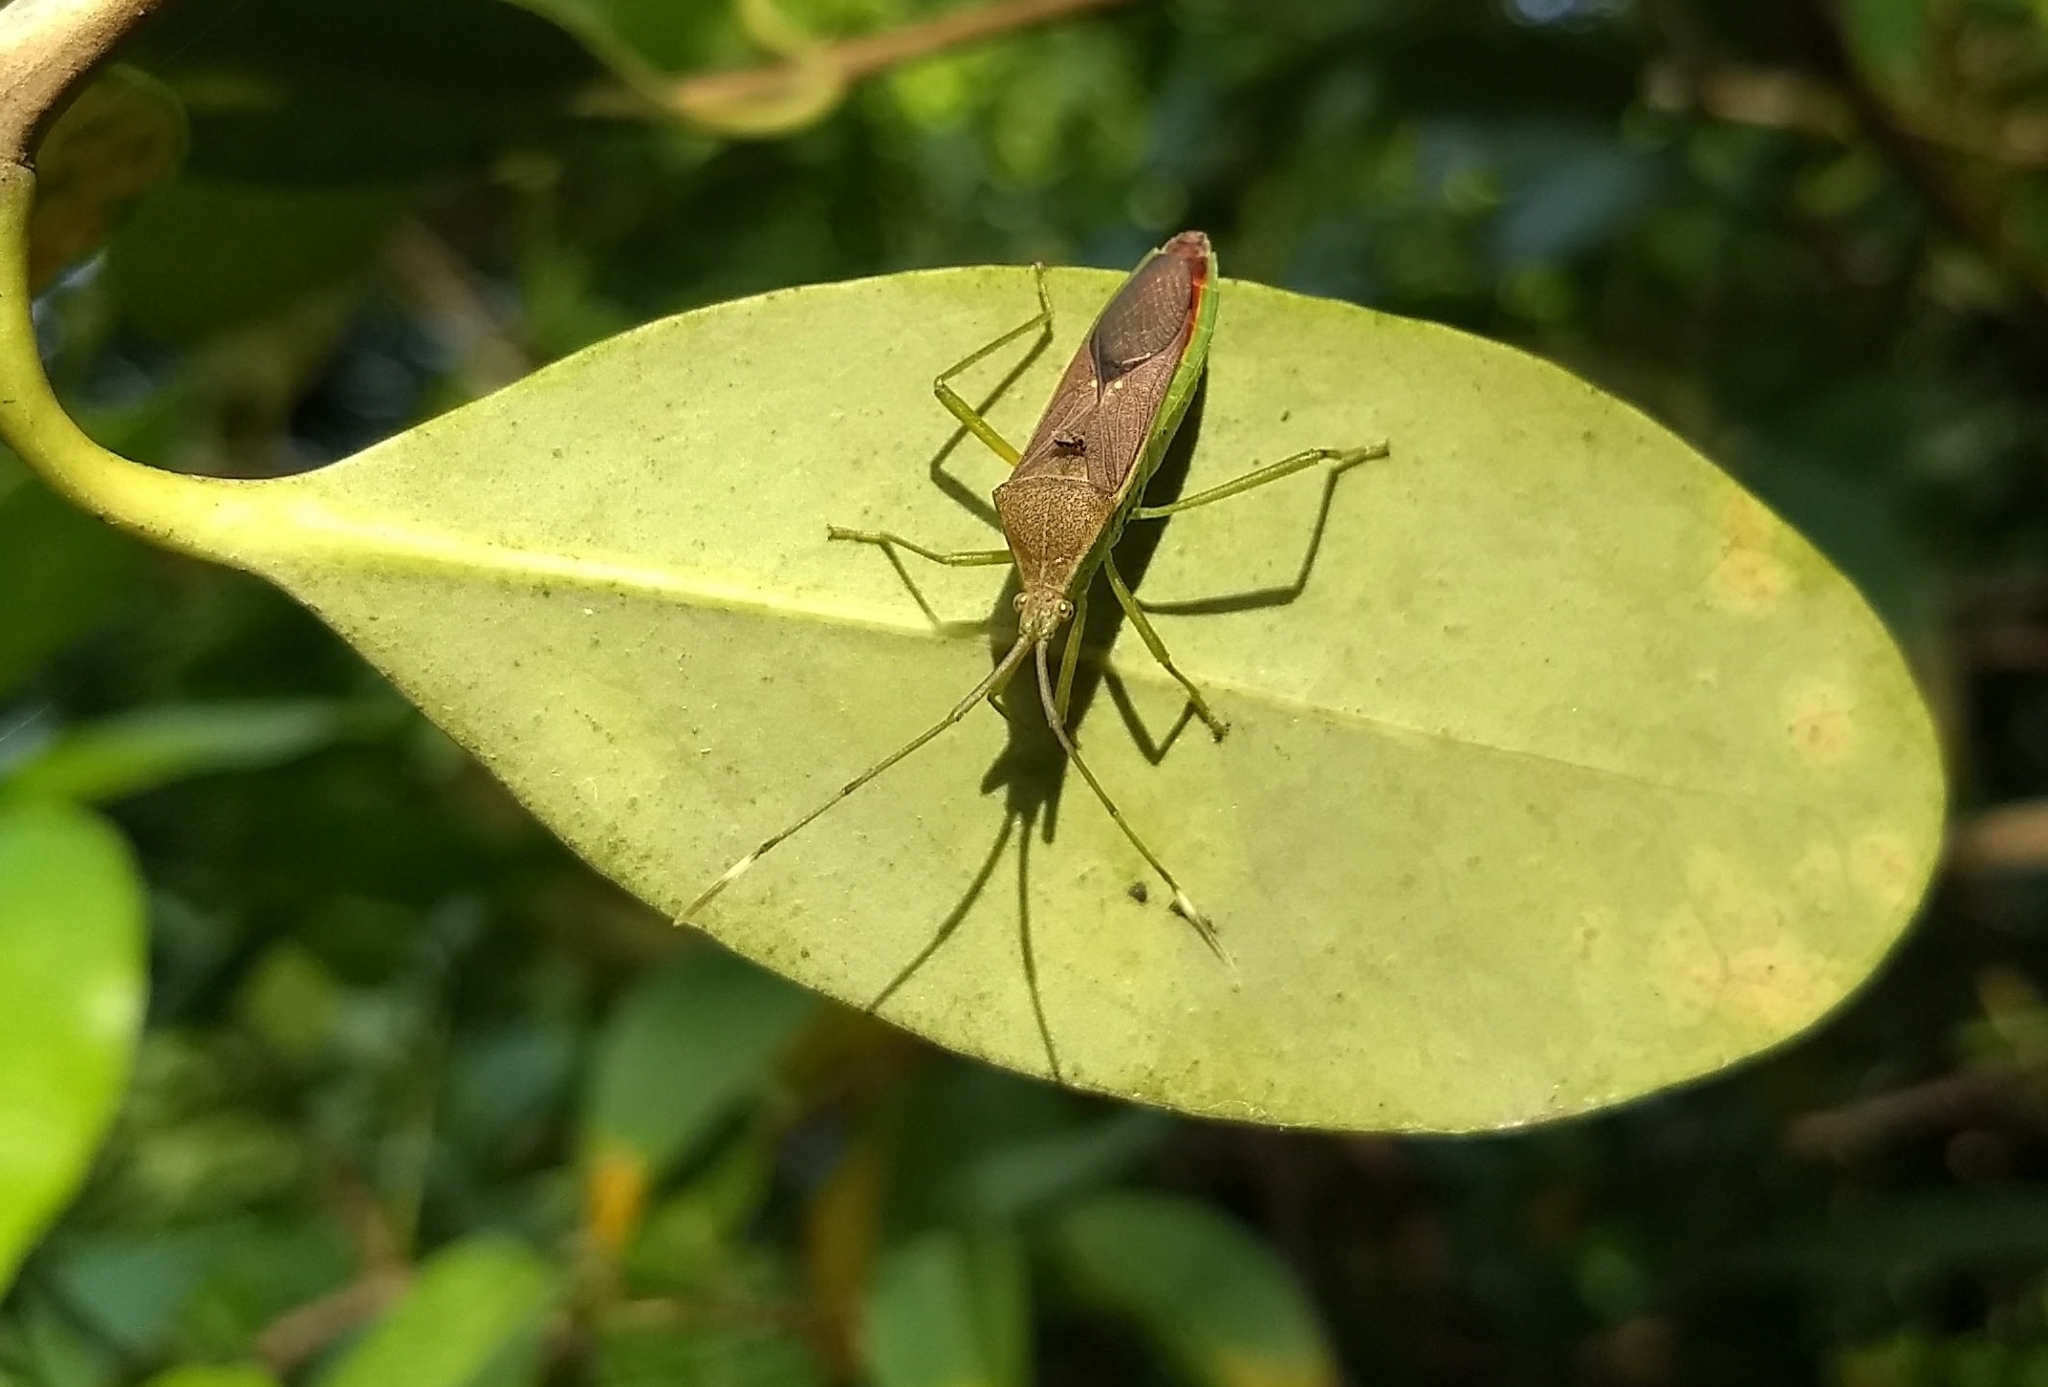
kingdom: Animalia
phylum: Arthropoda
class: Insecta
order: Hemiptera
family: Coreidae
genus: Homoeocerus
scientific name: Homoeocerus relatus
